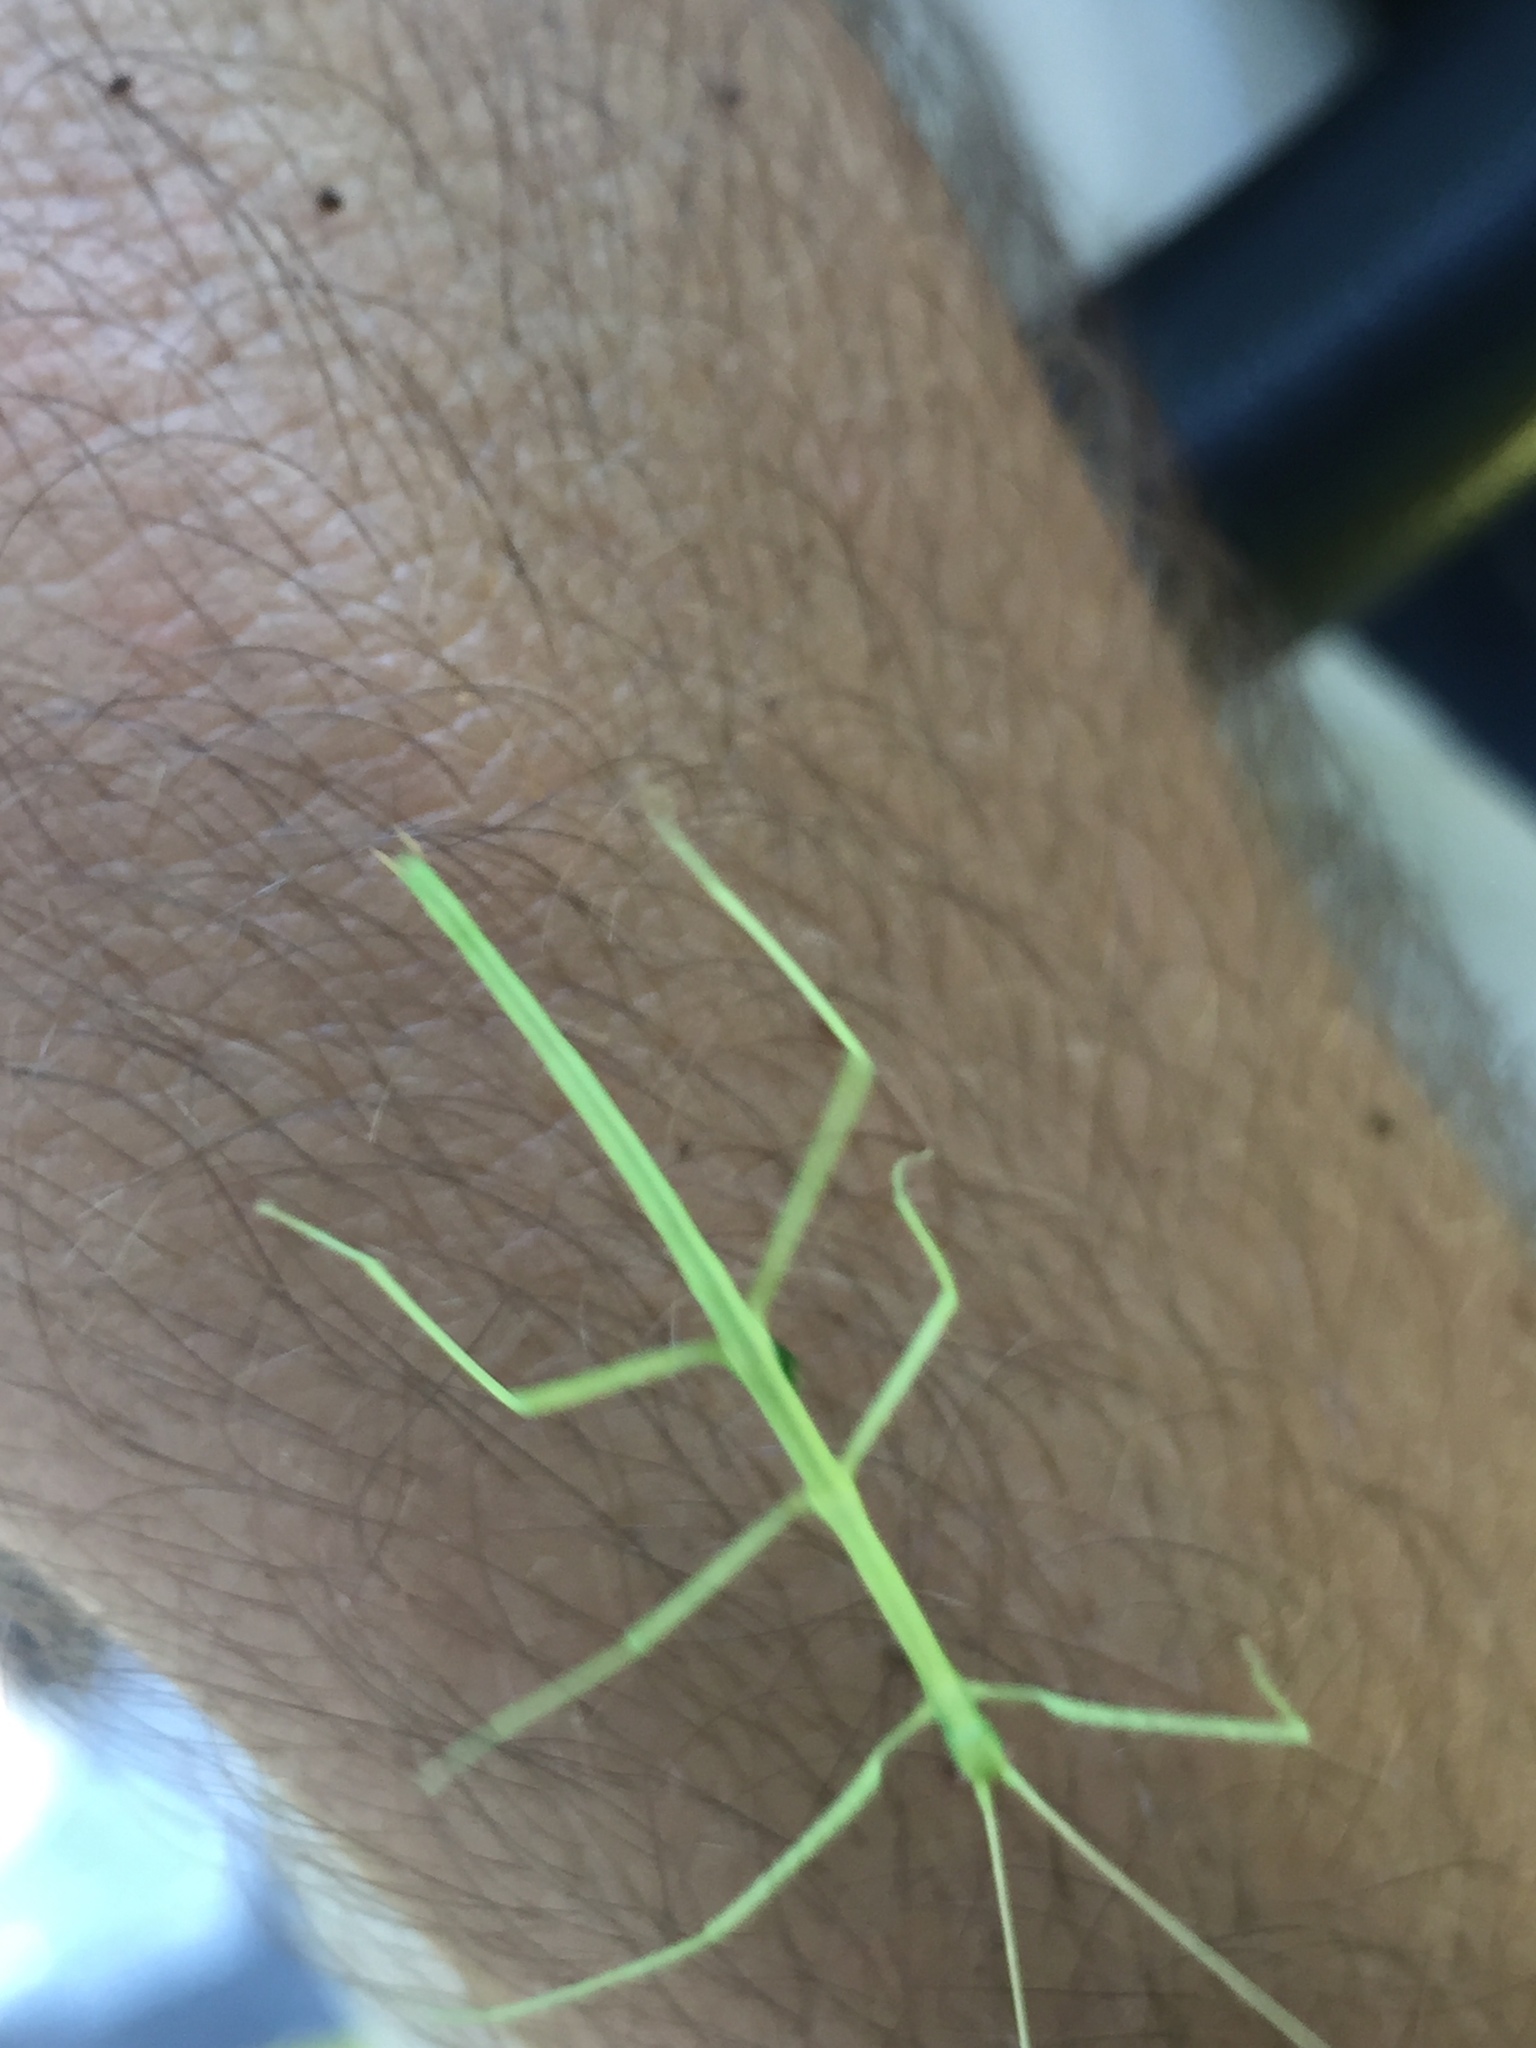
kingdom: Animalia
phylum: Arthropoda
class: Insecta
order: Phasmida
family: Diapheromeridae
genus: Diapheromera
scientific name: Diapheromera femorata
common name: Common american walkingstick
